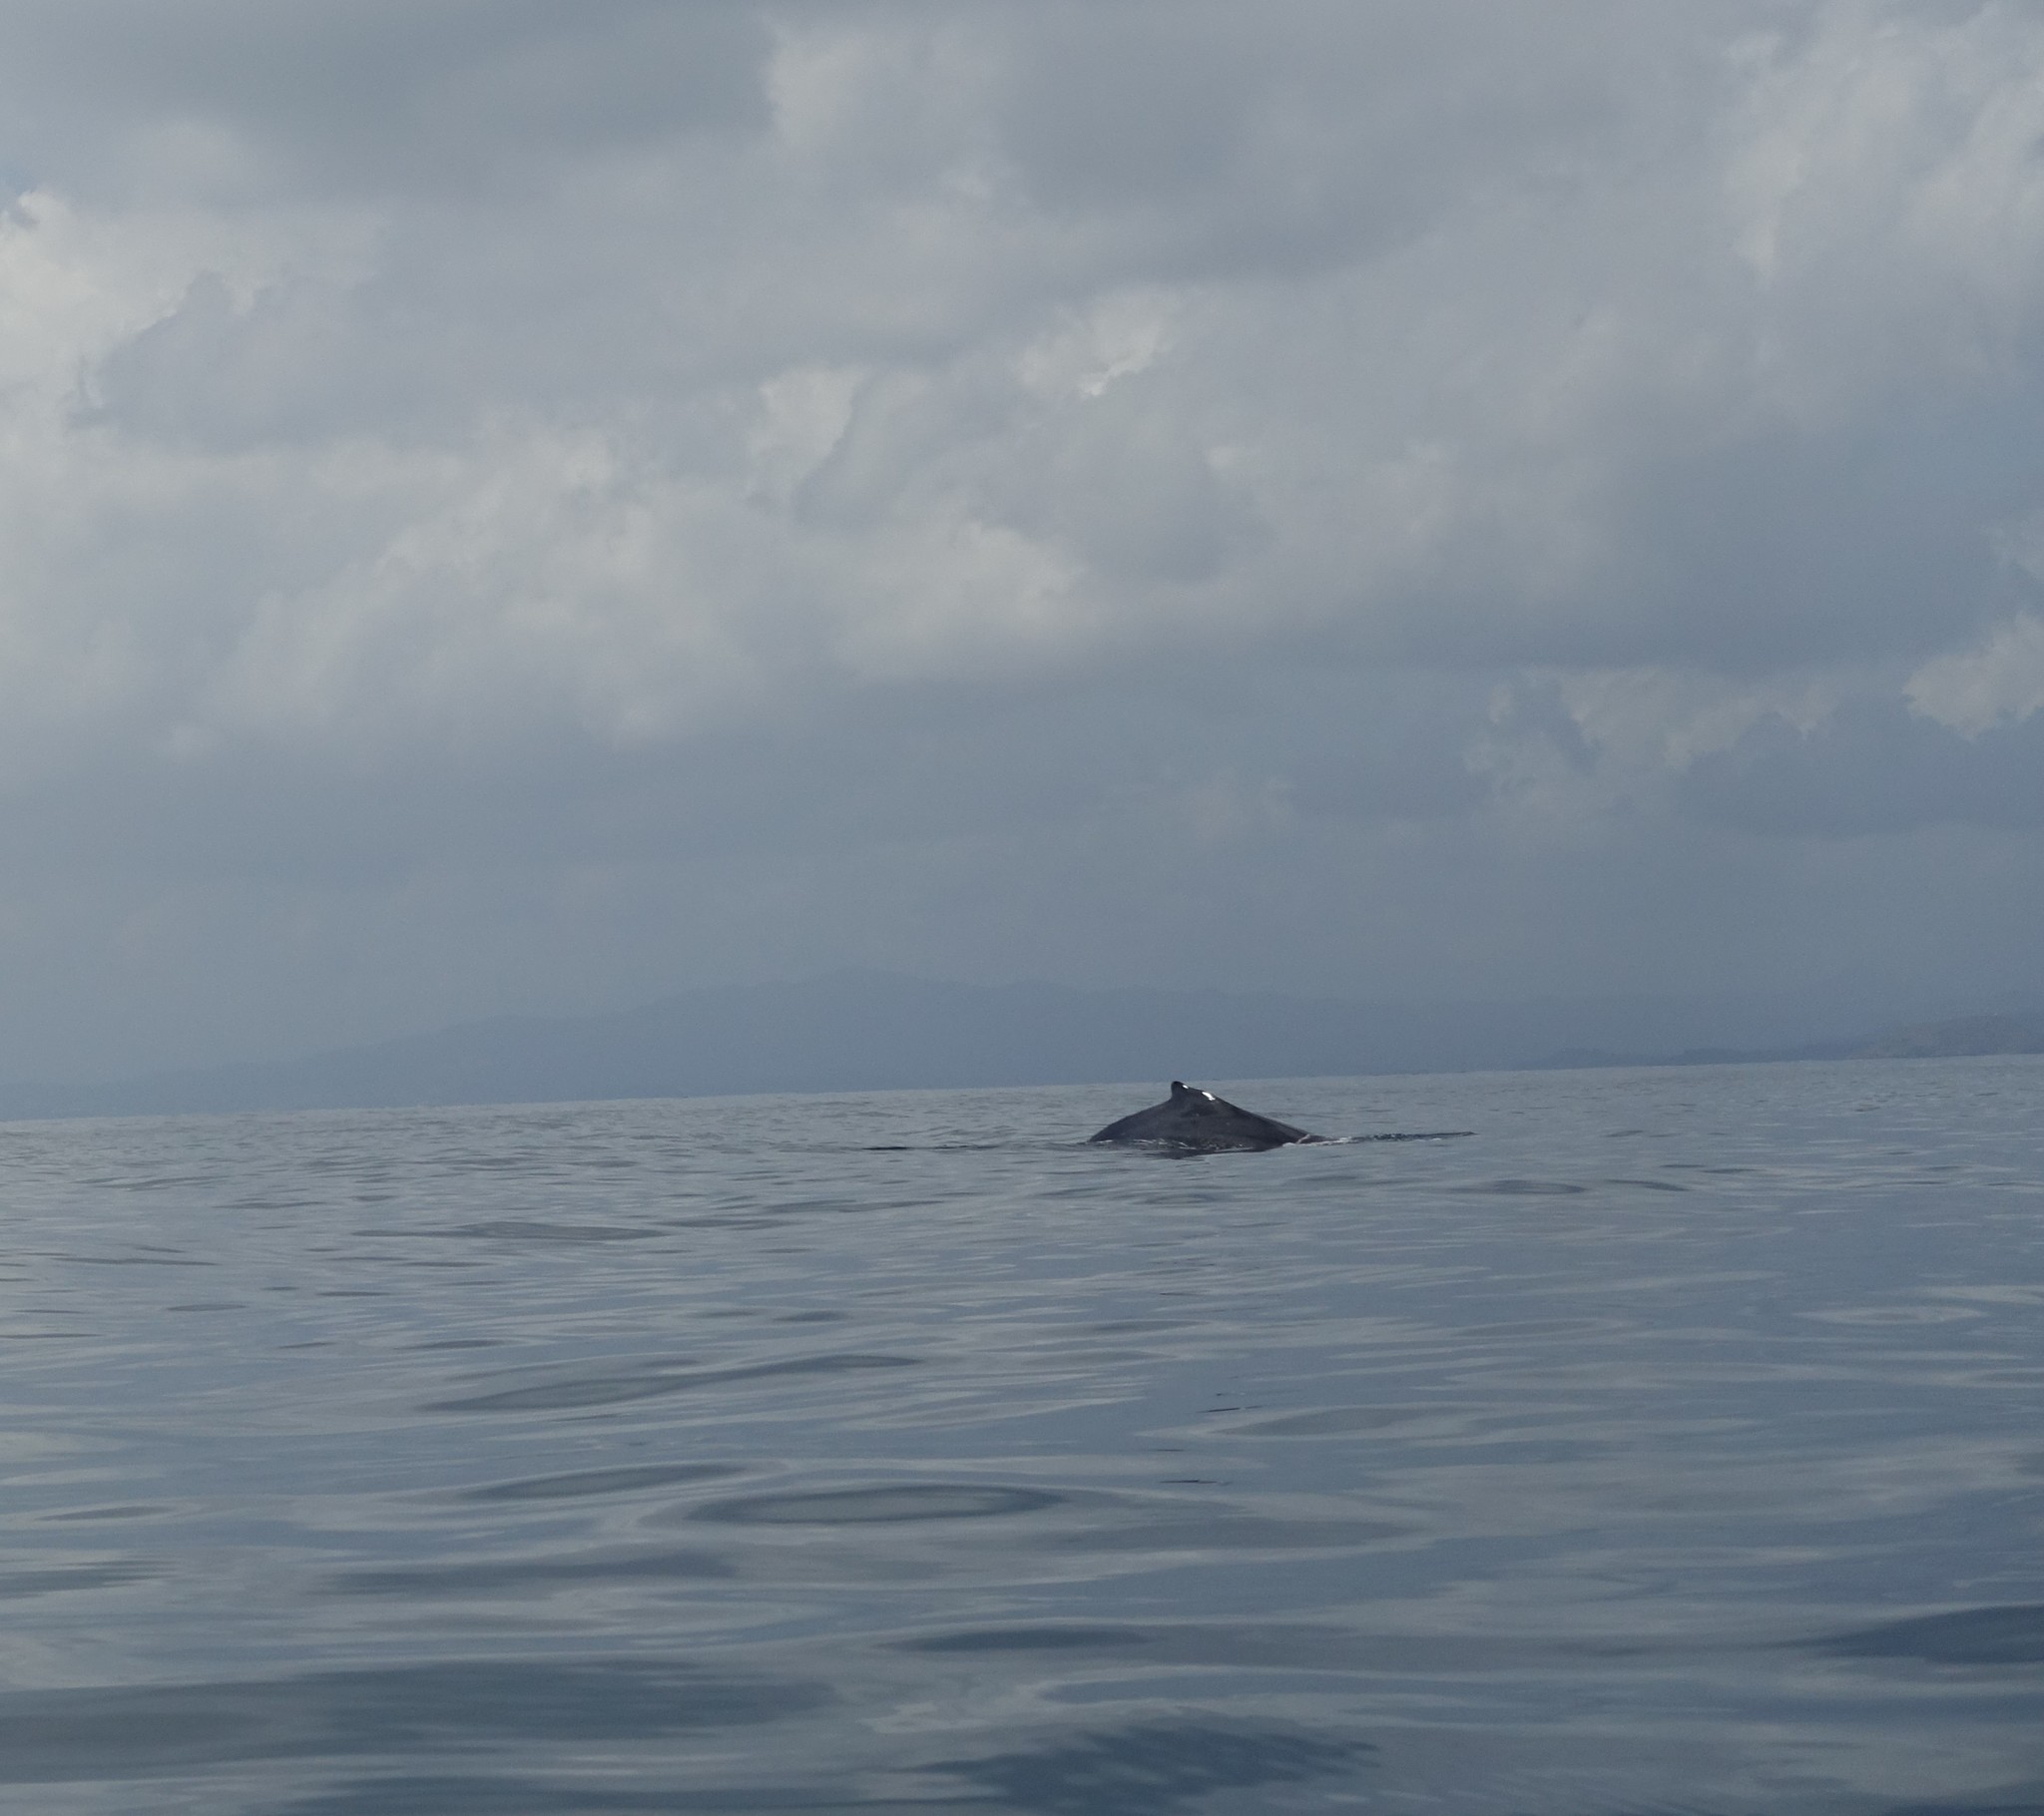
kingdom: Animalia
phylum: Chordata
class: Mammalia
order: Cetacea
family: Balaenopteridae
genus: Megaptera
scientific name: Megaptera novaeangliae
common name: Humpback whale
